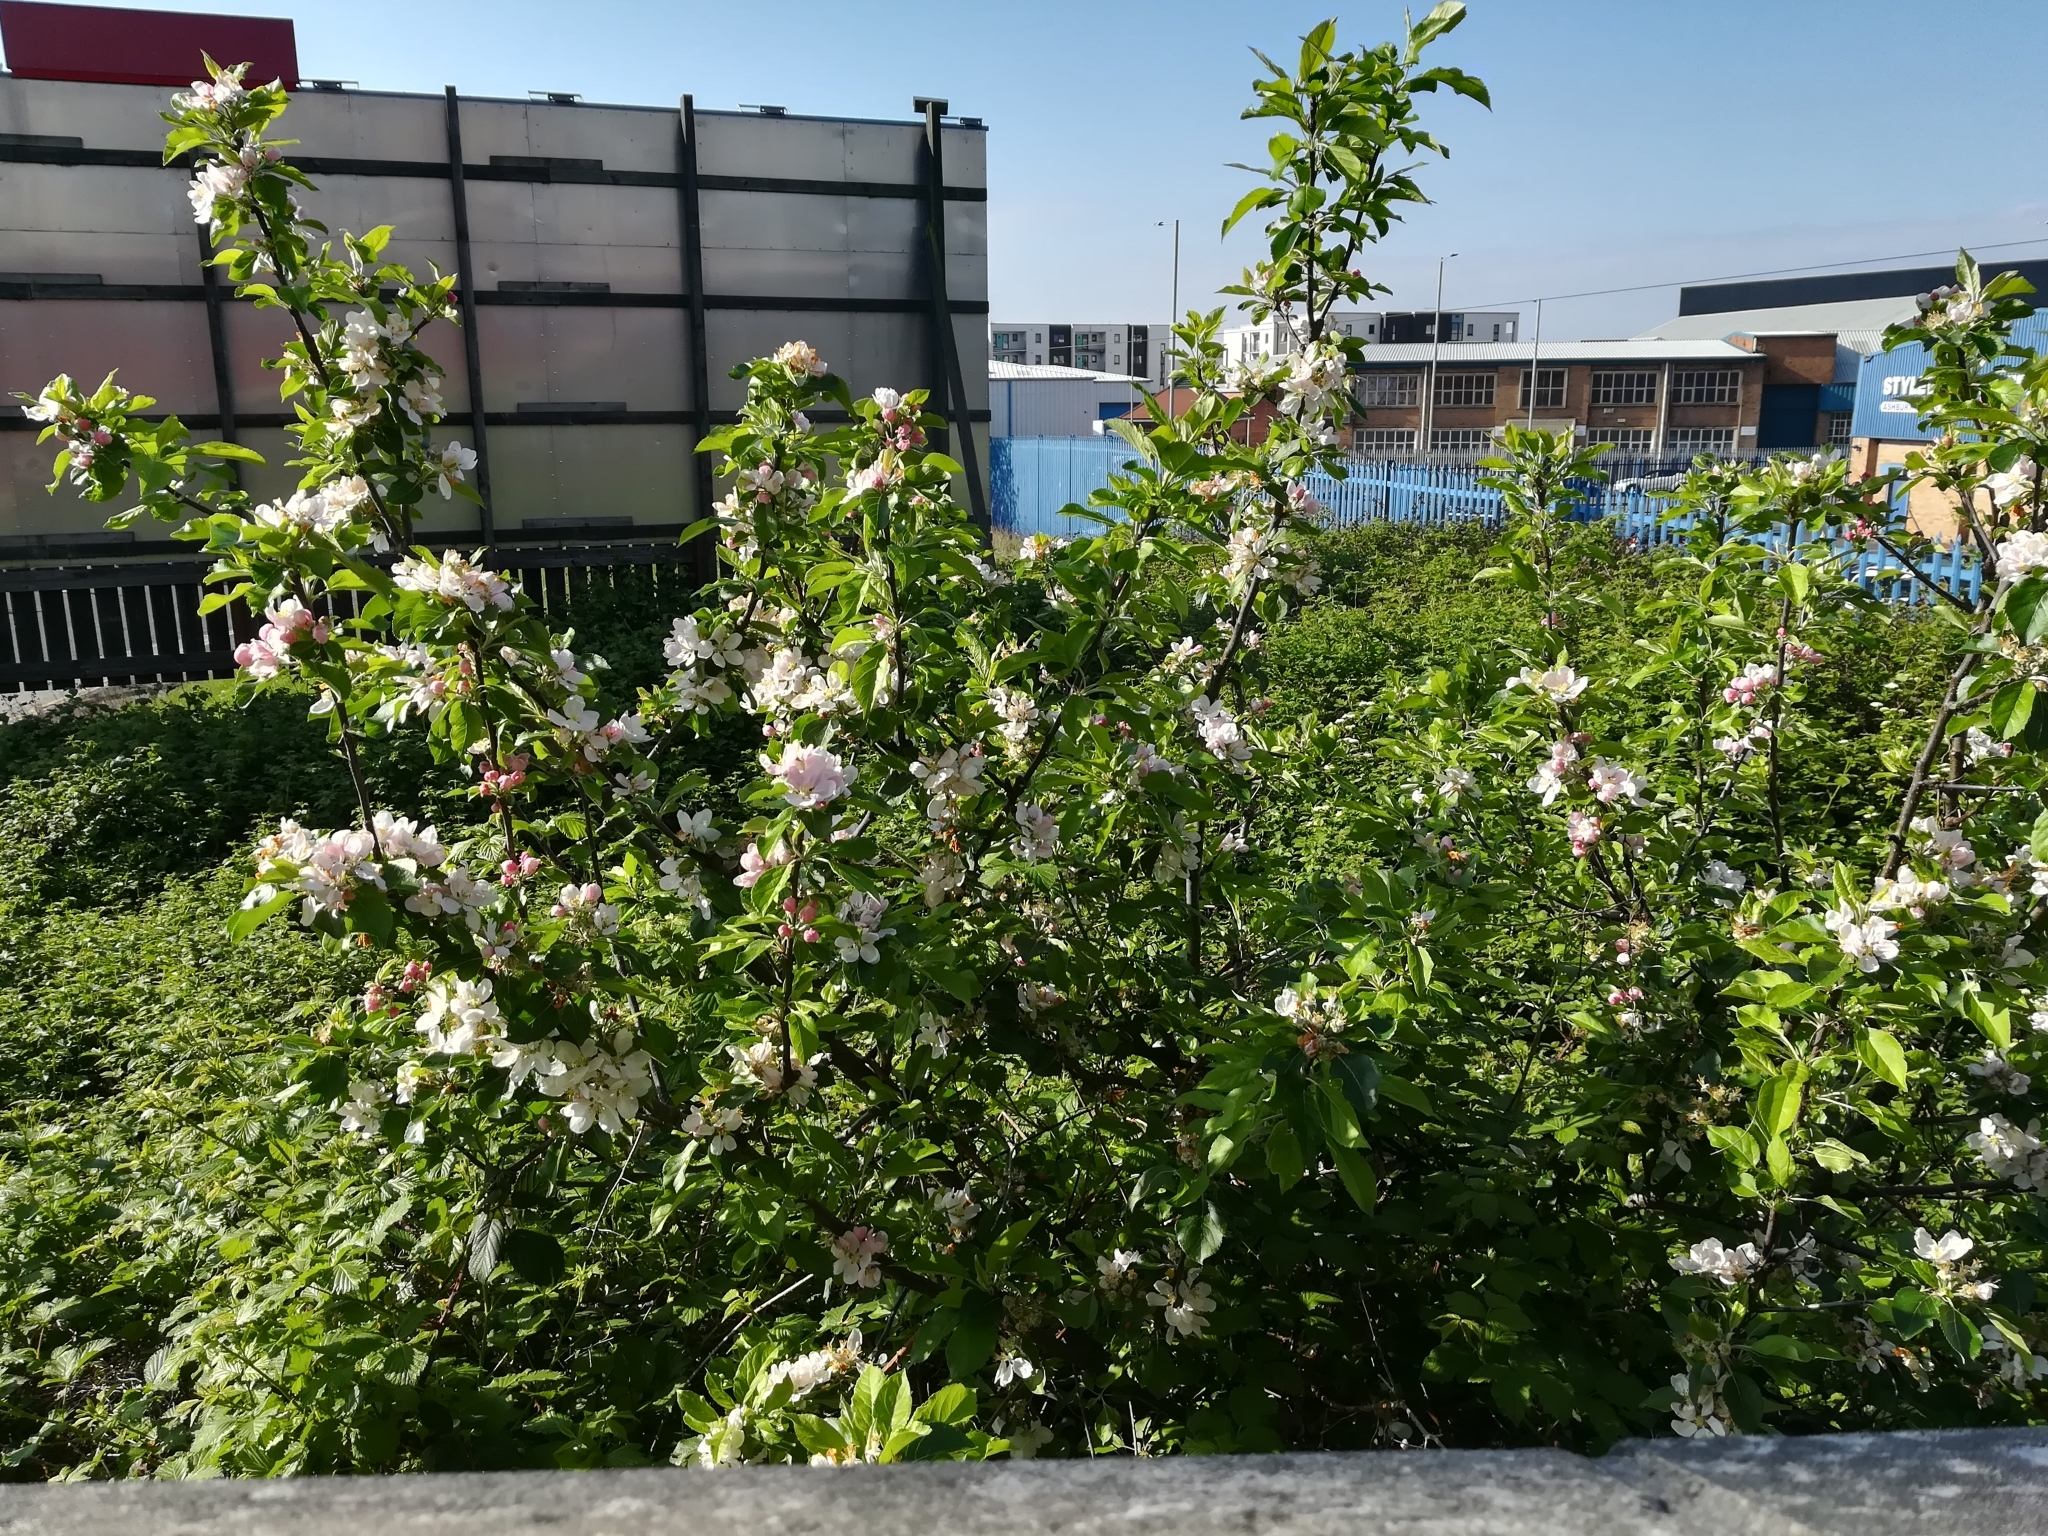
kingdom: Plantae
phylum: Tracheophyta
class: Magnoliopsida
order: Rosales
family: Rosaceae
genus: Malus
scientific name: Malus domestica
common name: Apple
